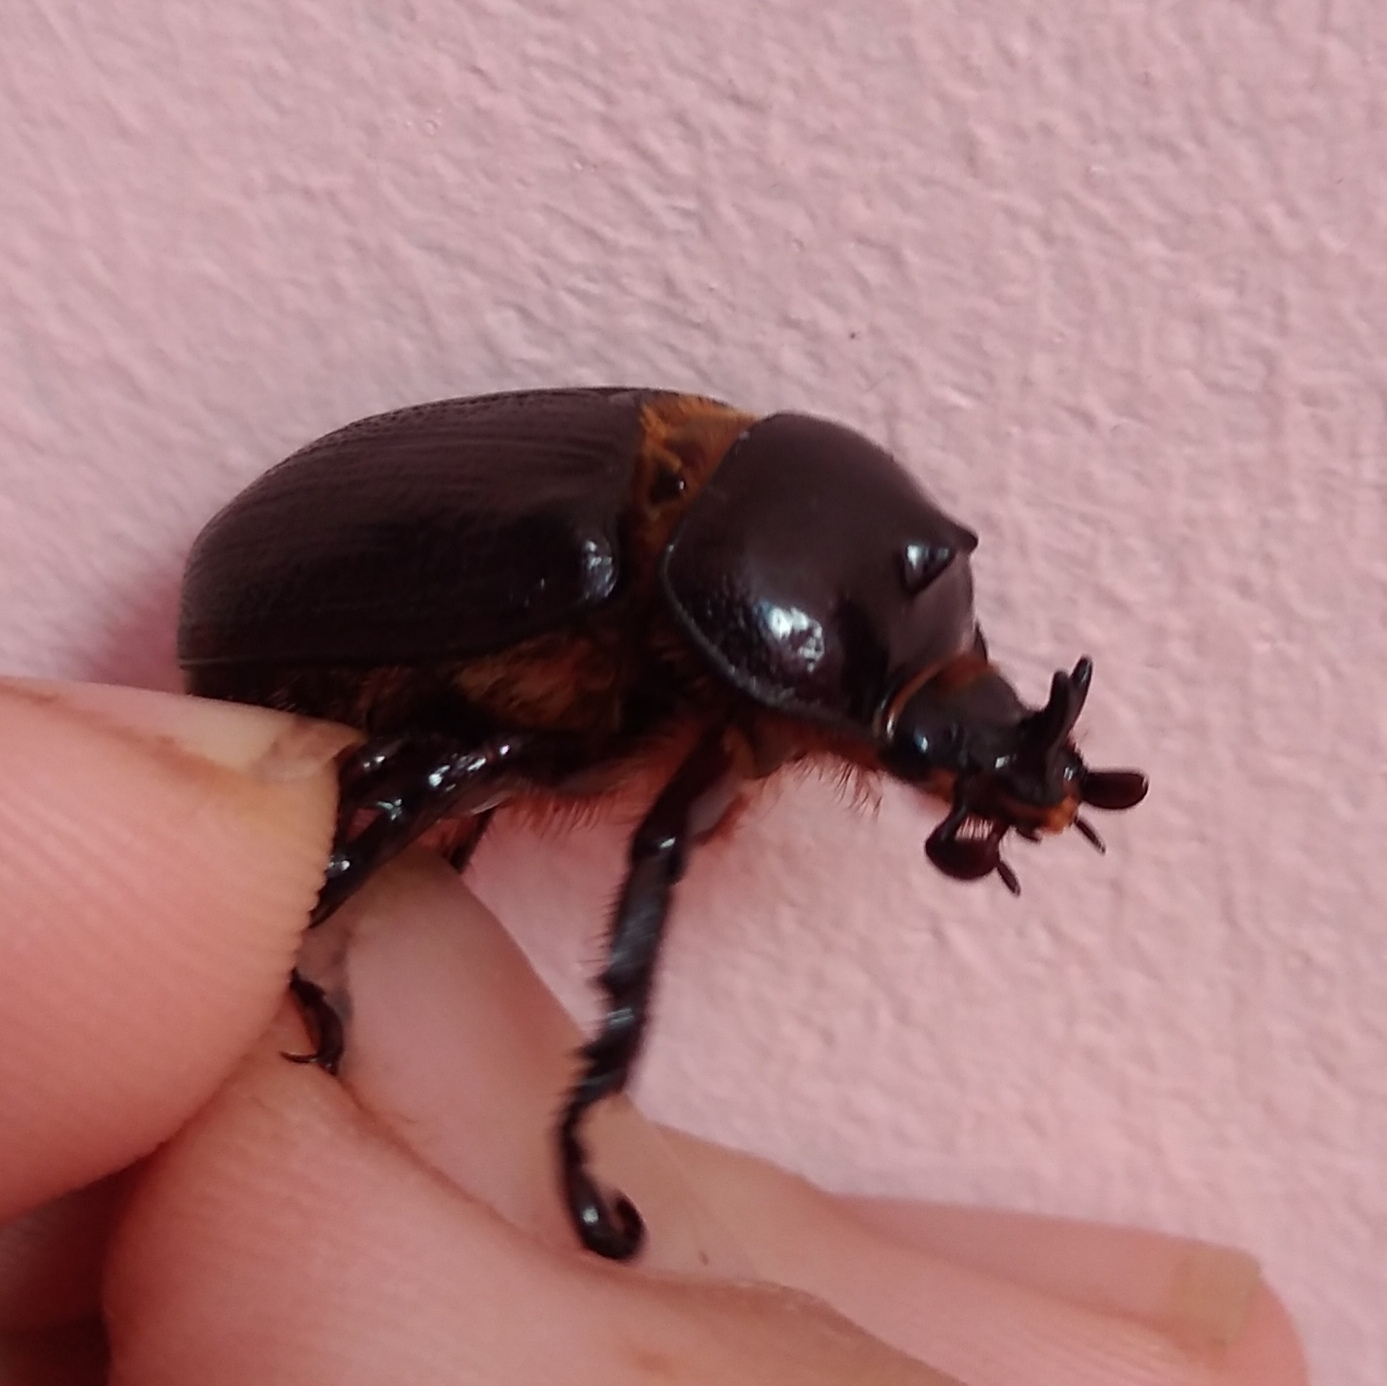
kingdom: Animalia
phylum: Arthropoda
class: Insecta
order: Coleoptera
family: Scarabaeidae
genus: Cyphonistes
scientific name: Cyphonistes vallatus
